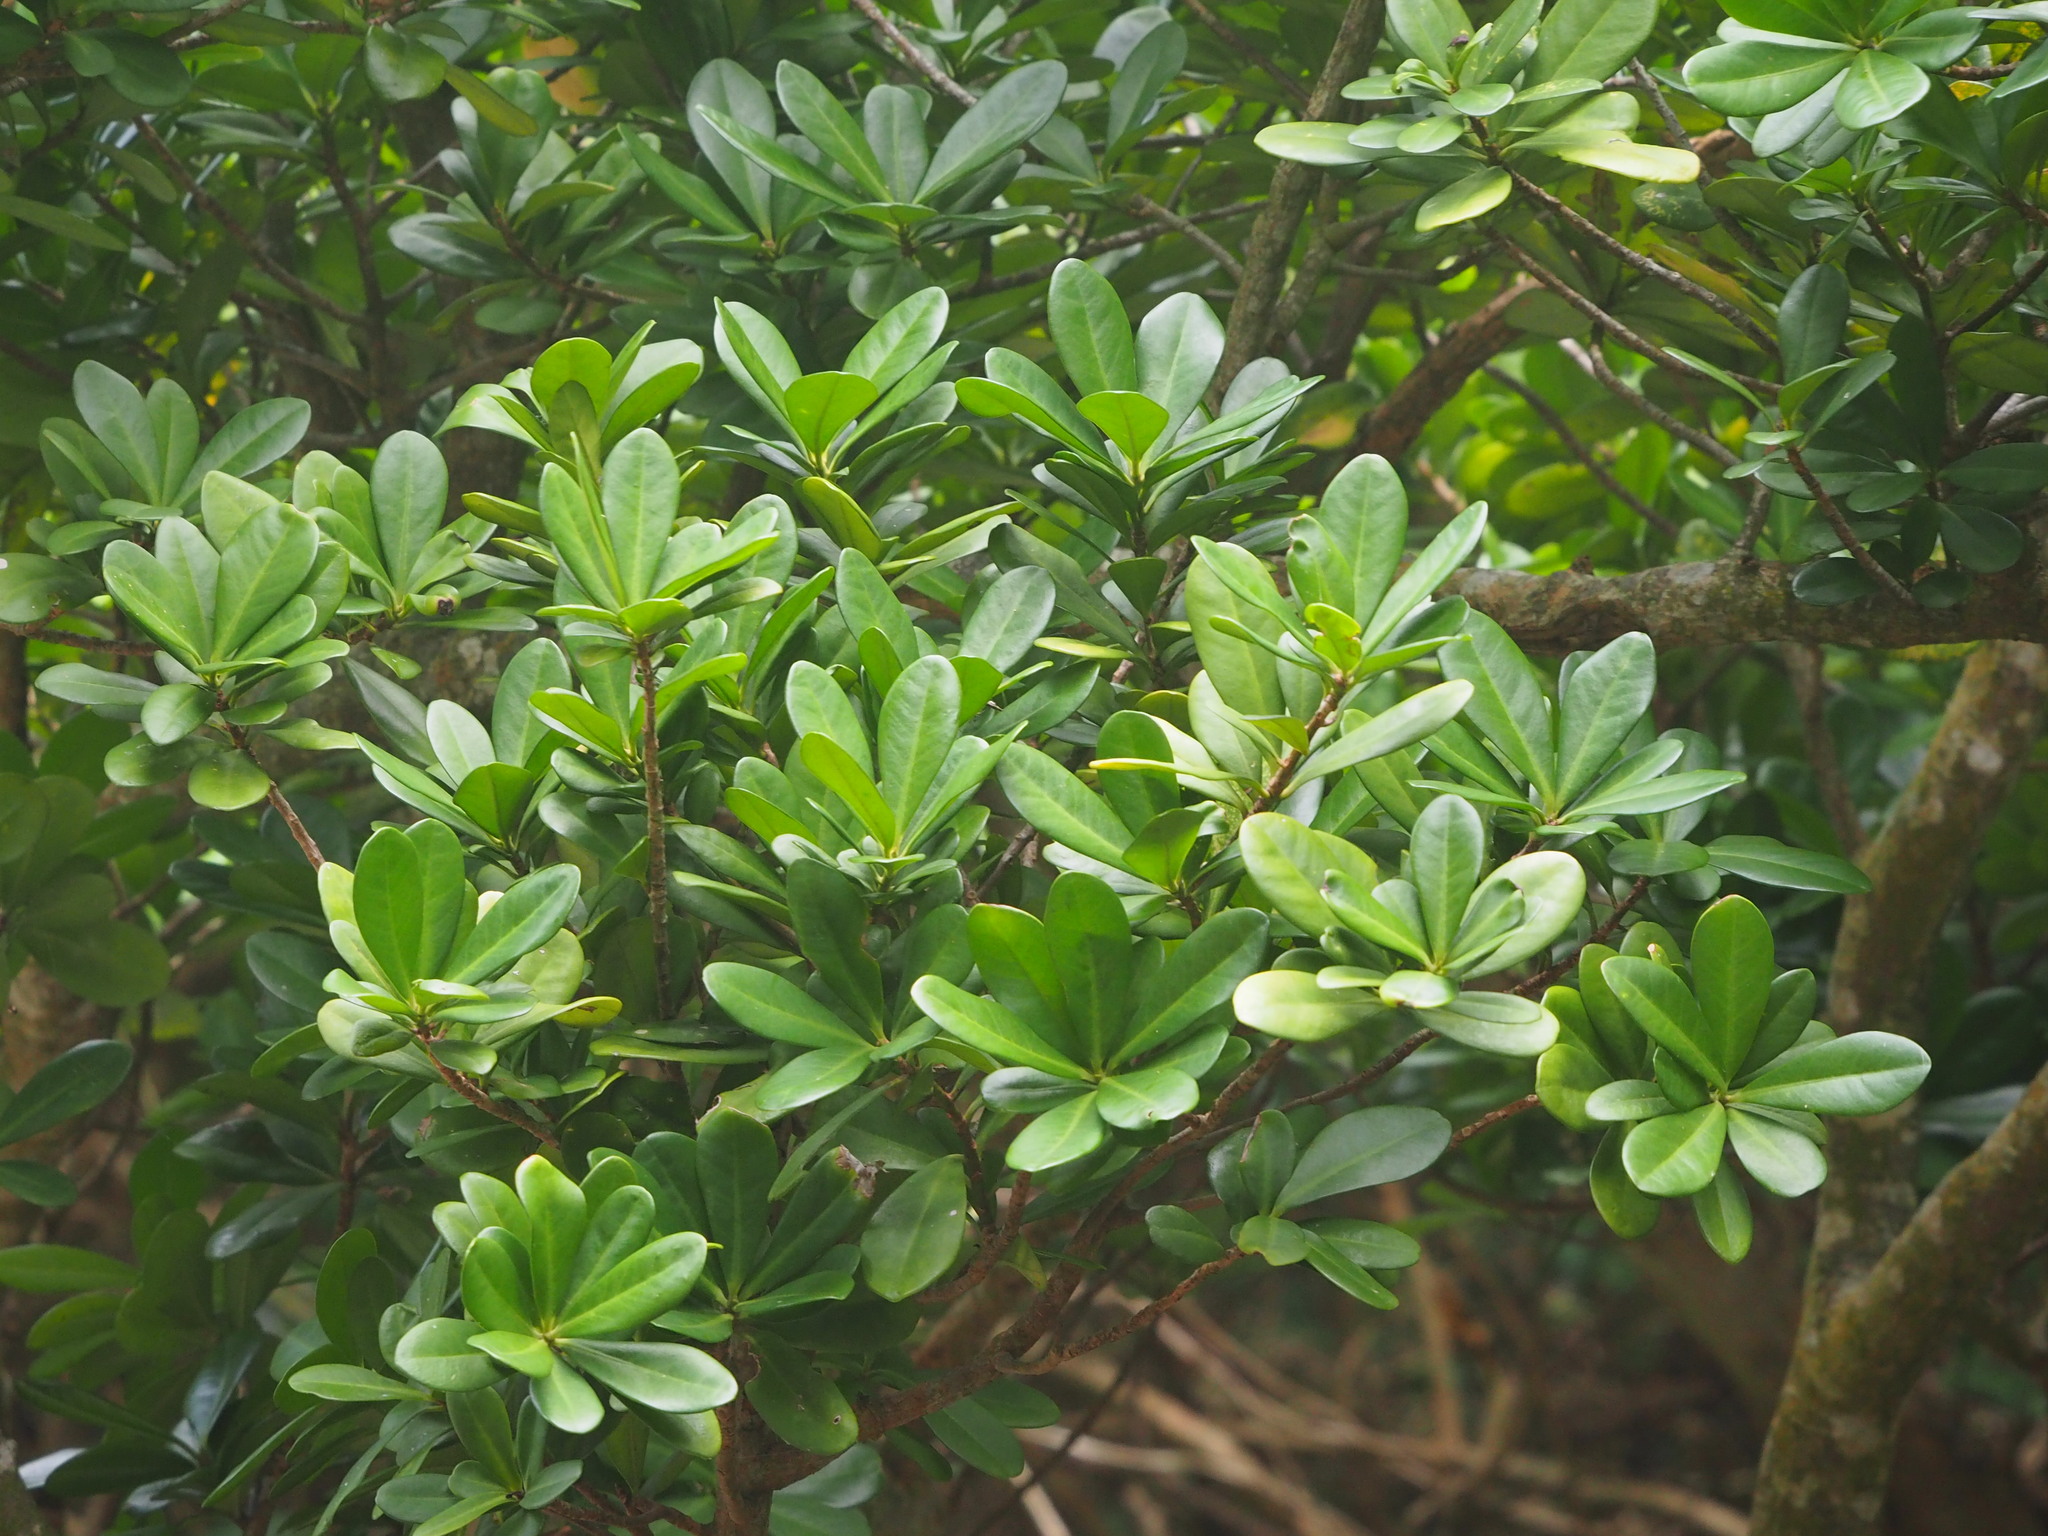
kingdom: Plantae
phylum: Tracheophyta
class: Magnoliopsida
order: Ericales
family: Primulaceae
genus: Ardisia
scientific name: Ardisia elliptica
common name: Shoebutton
